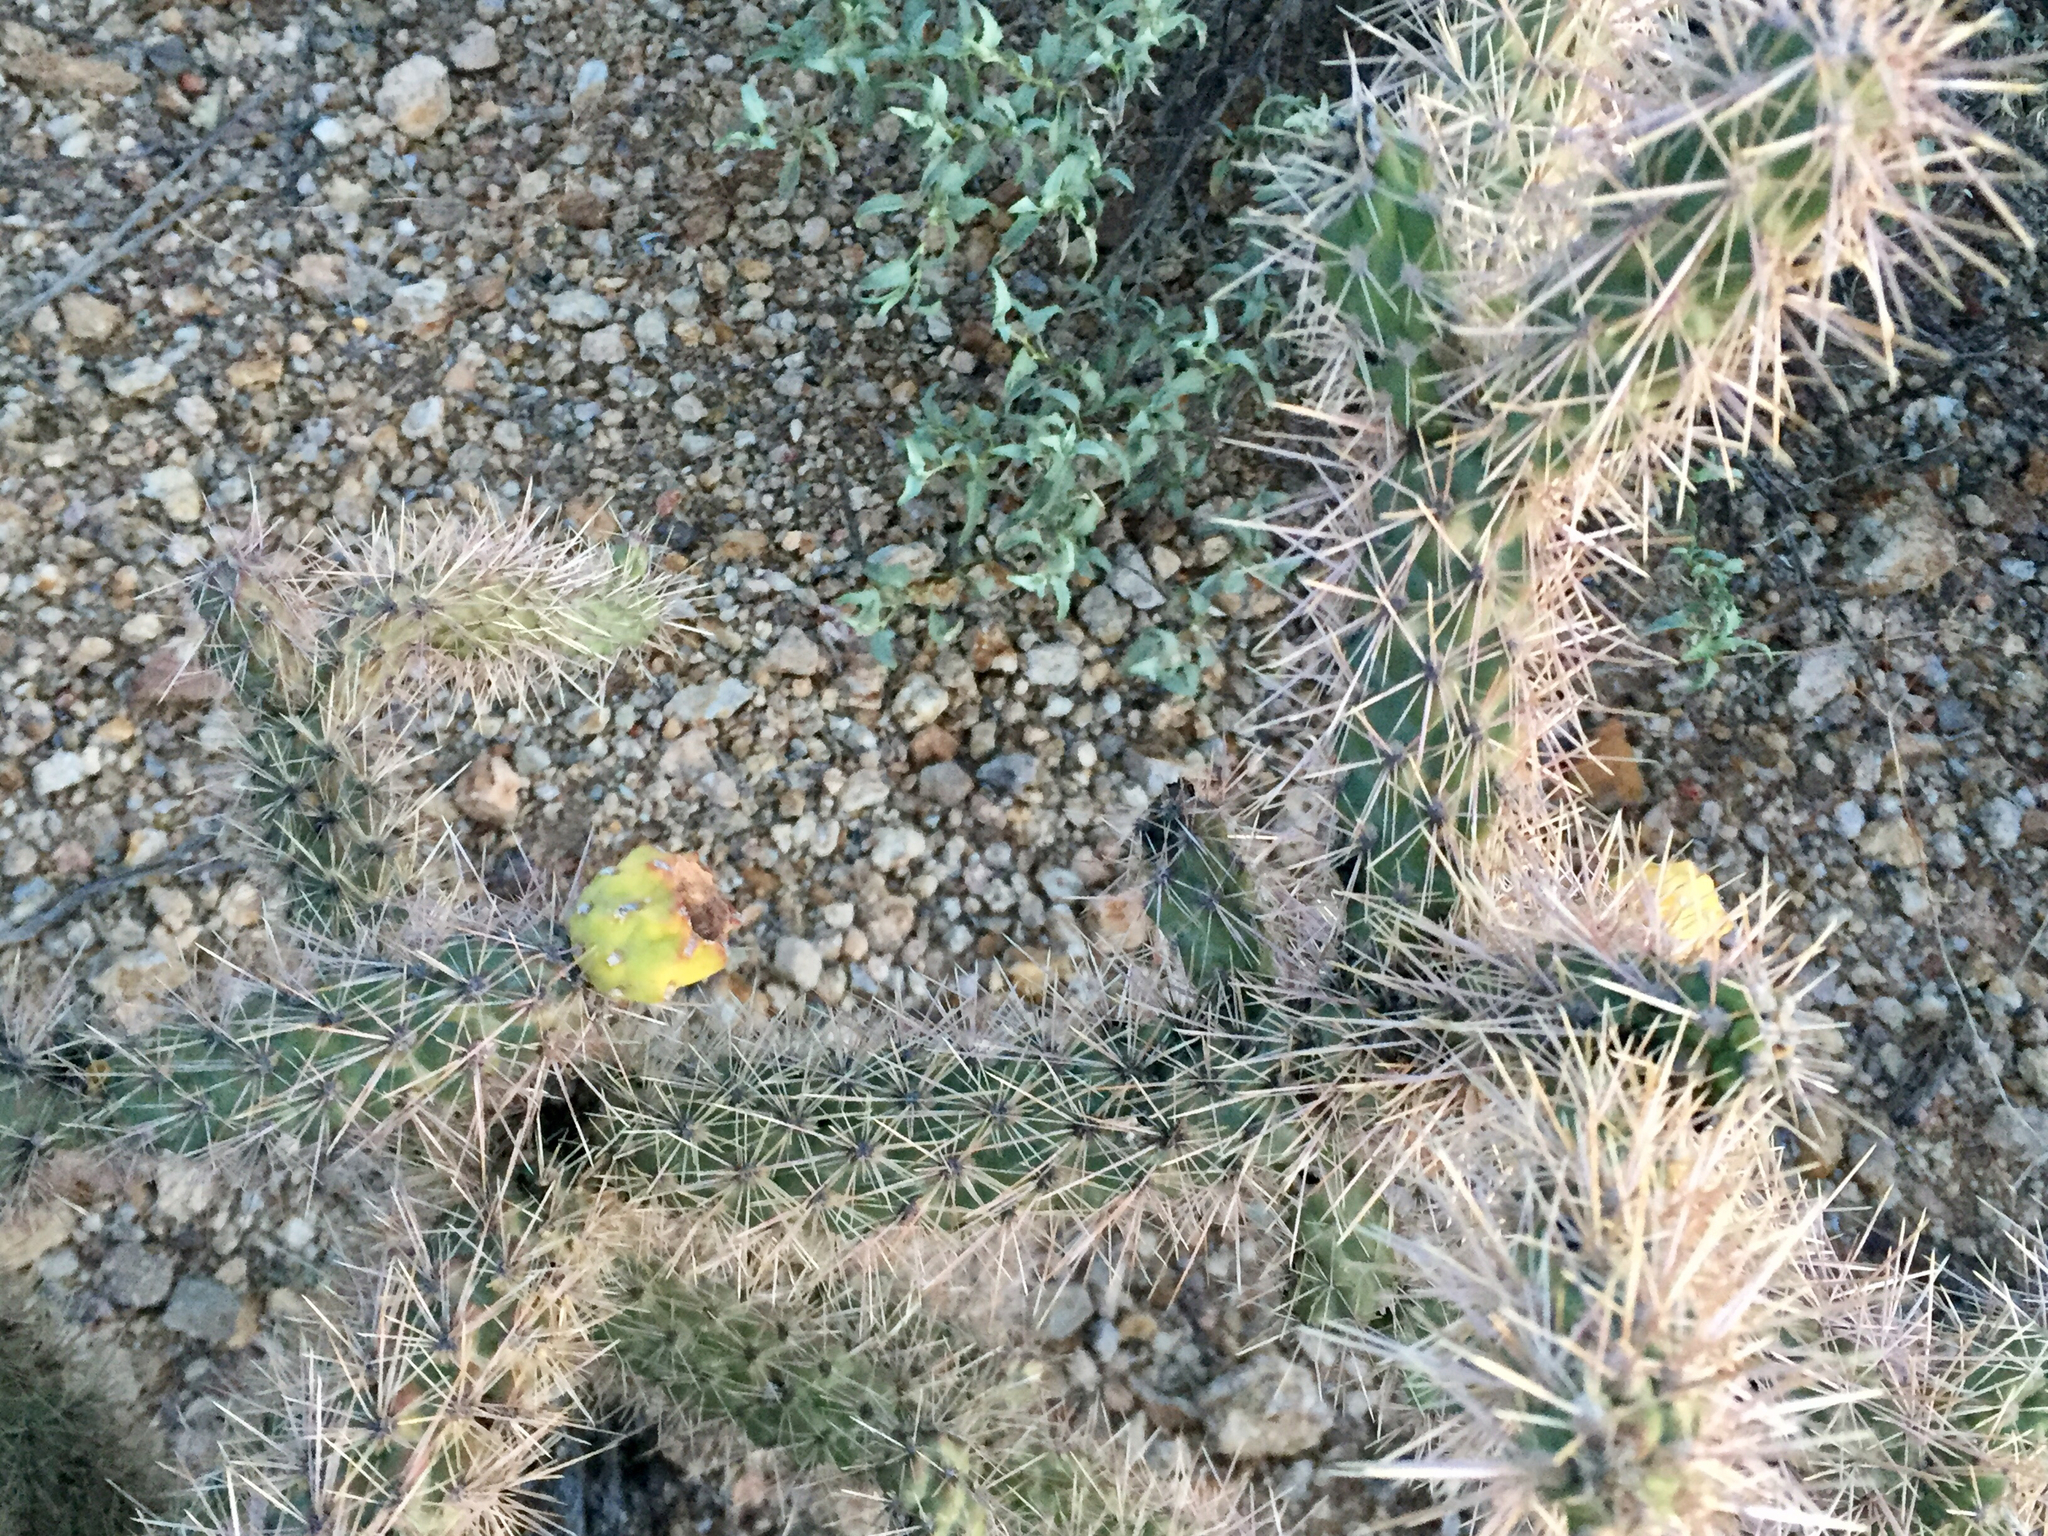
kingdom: Plantae
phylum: Tracheophyta
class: Magnoliopsida
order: Caryophyllales
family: Cactaceae
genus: Cylindropuntia
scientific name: Cylindropuntia kelvinensis
